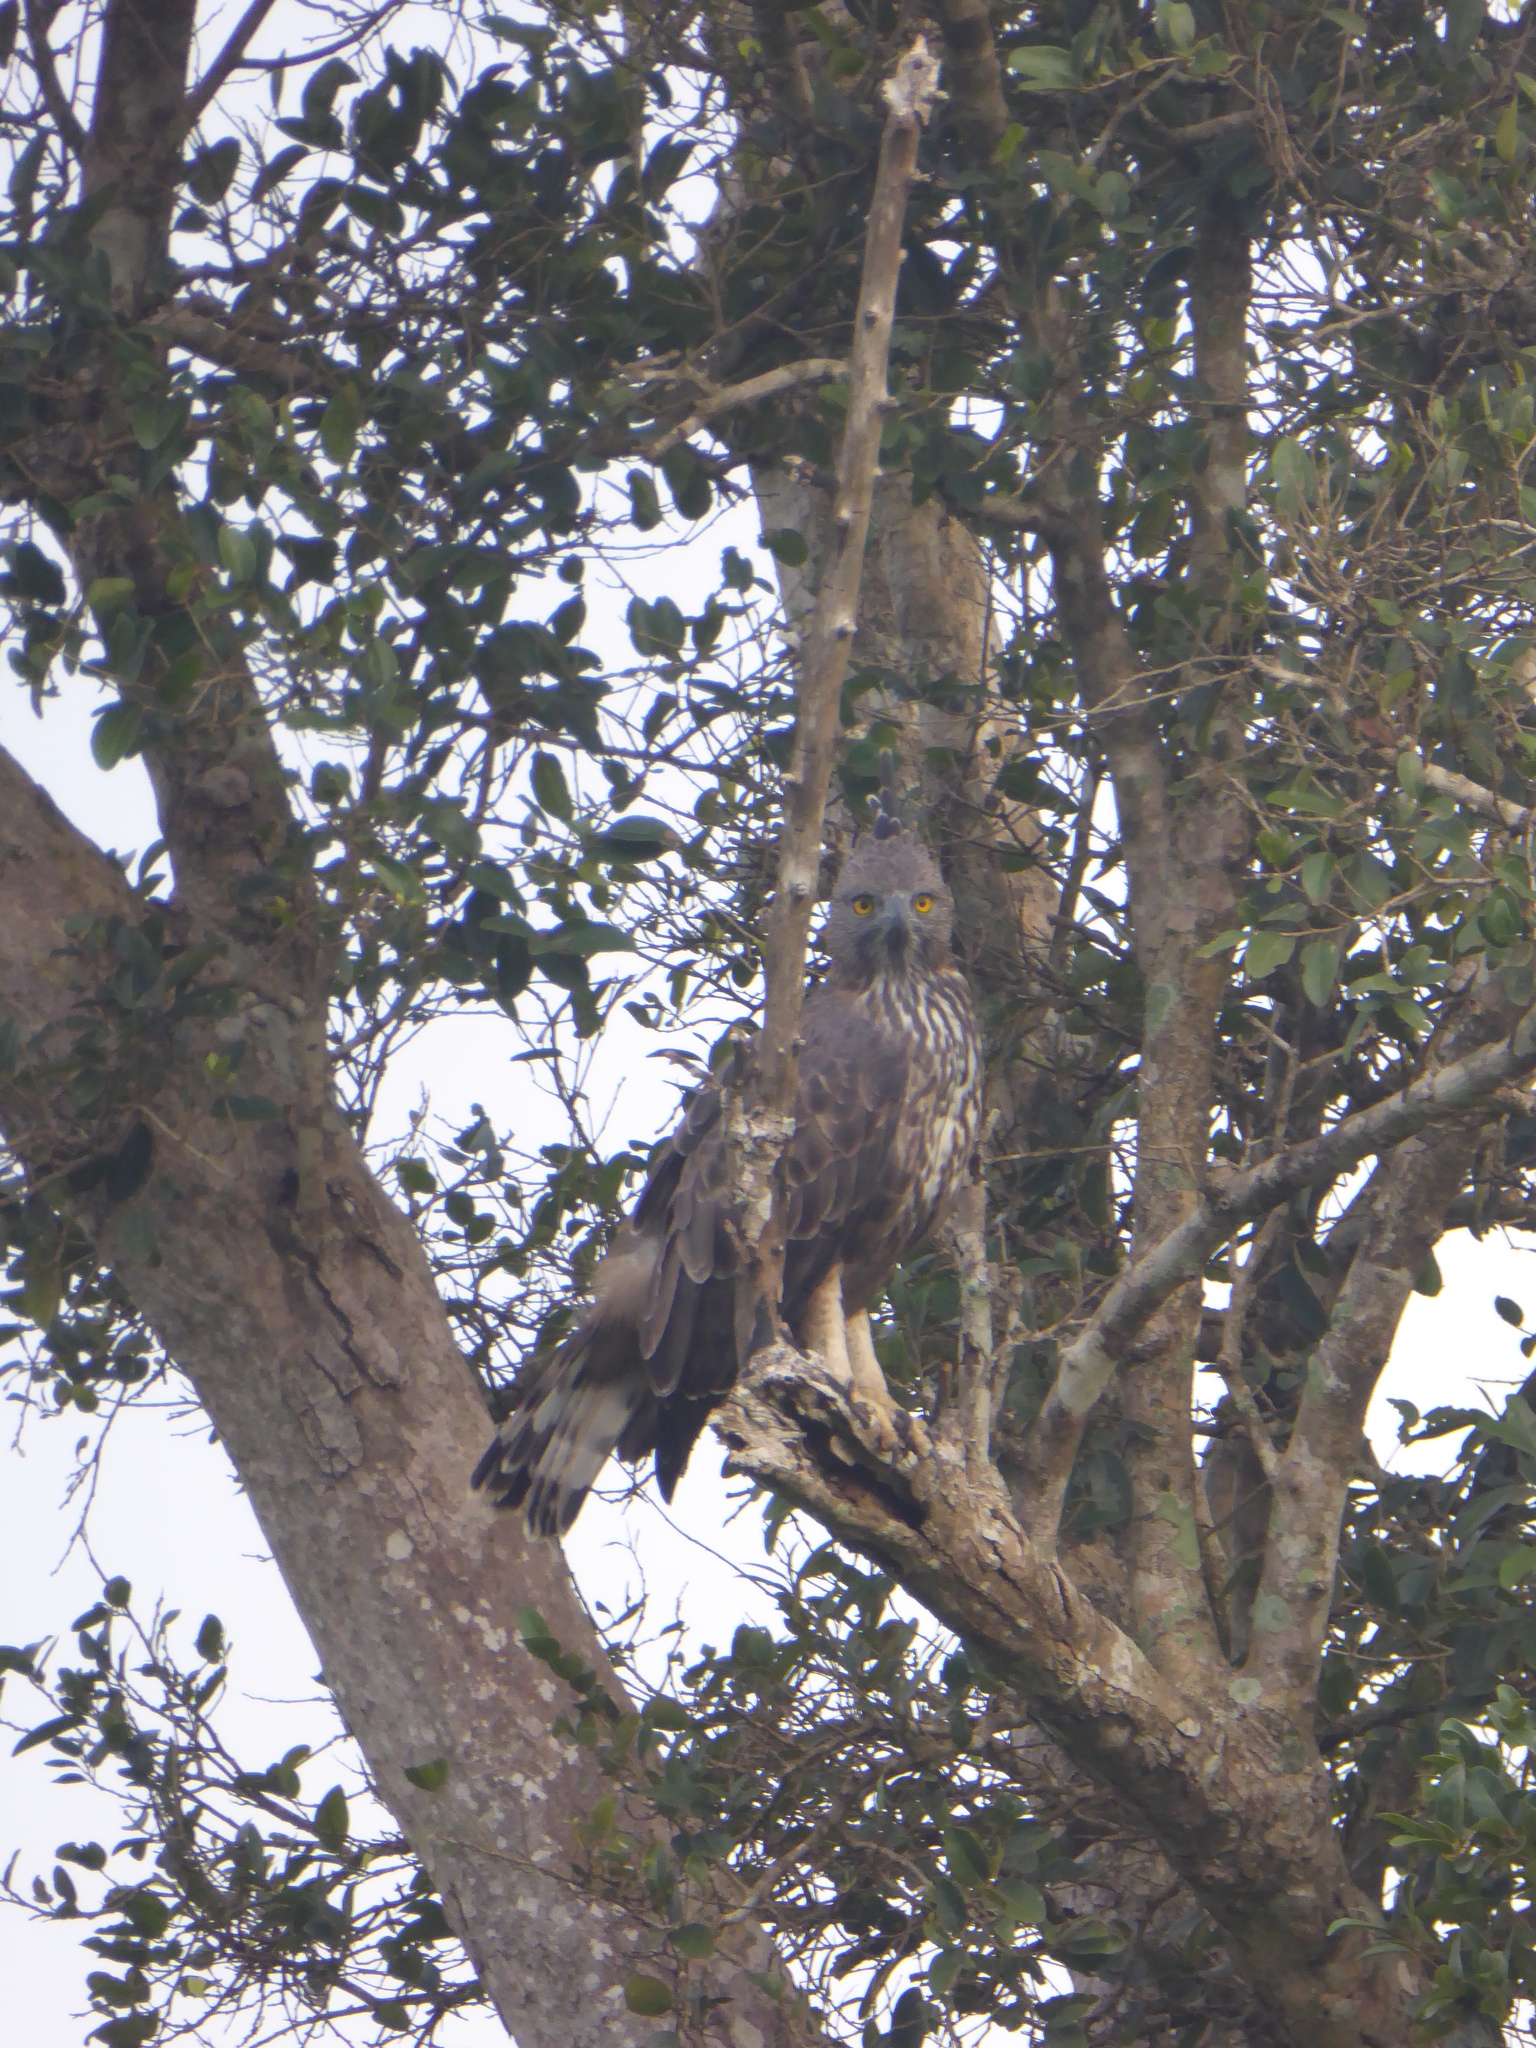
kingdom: Animalia
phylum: Chordata
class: Aves
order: Accipitriformes
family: Accipitridae
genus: Nisaetus
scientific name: Nisaetus cirrhatus
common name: Changeable hawk-eagle
